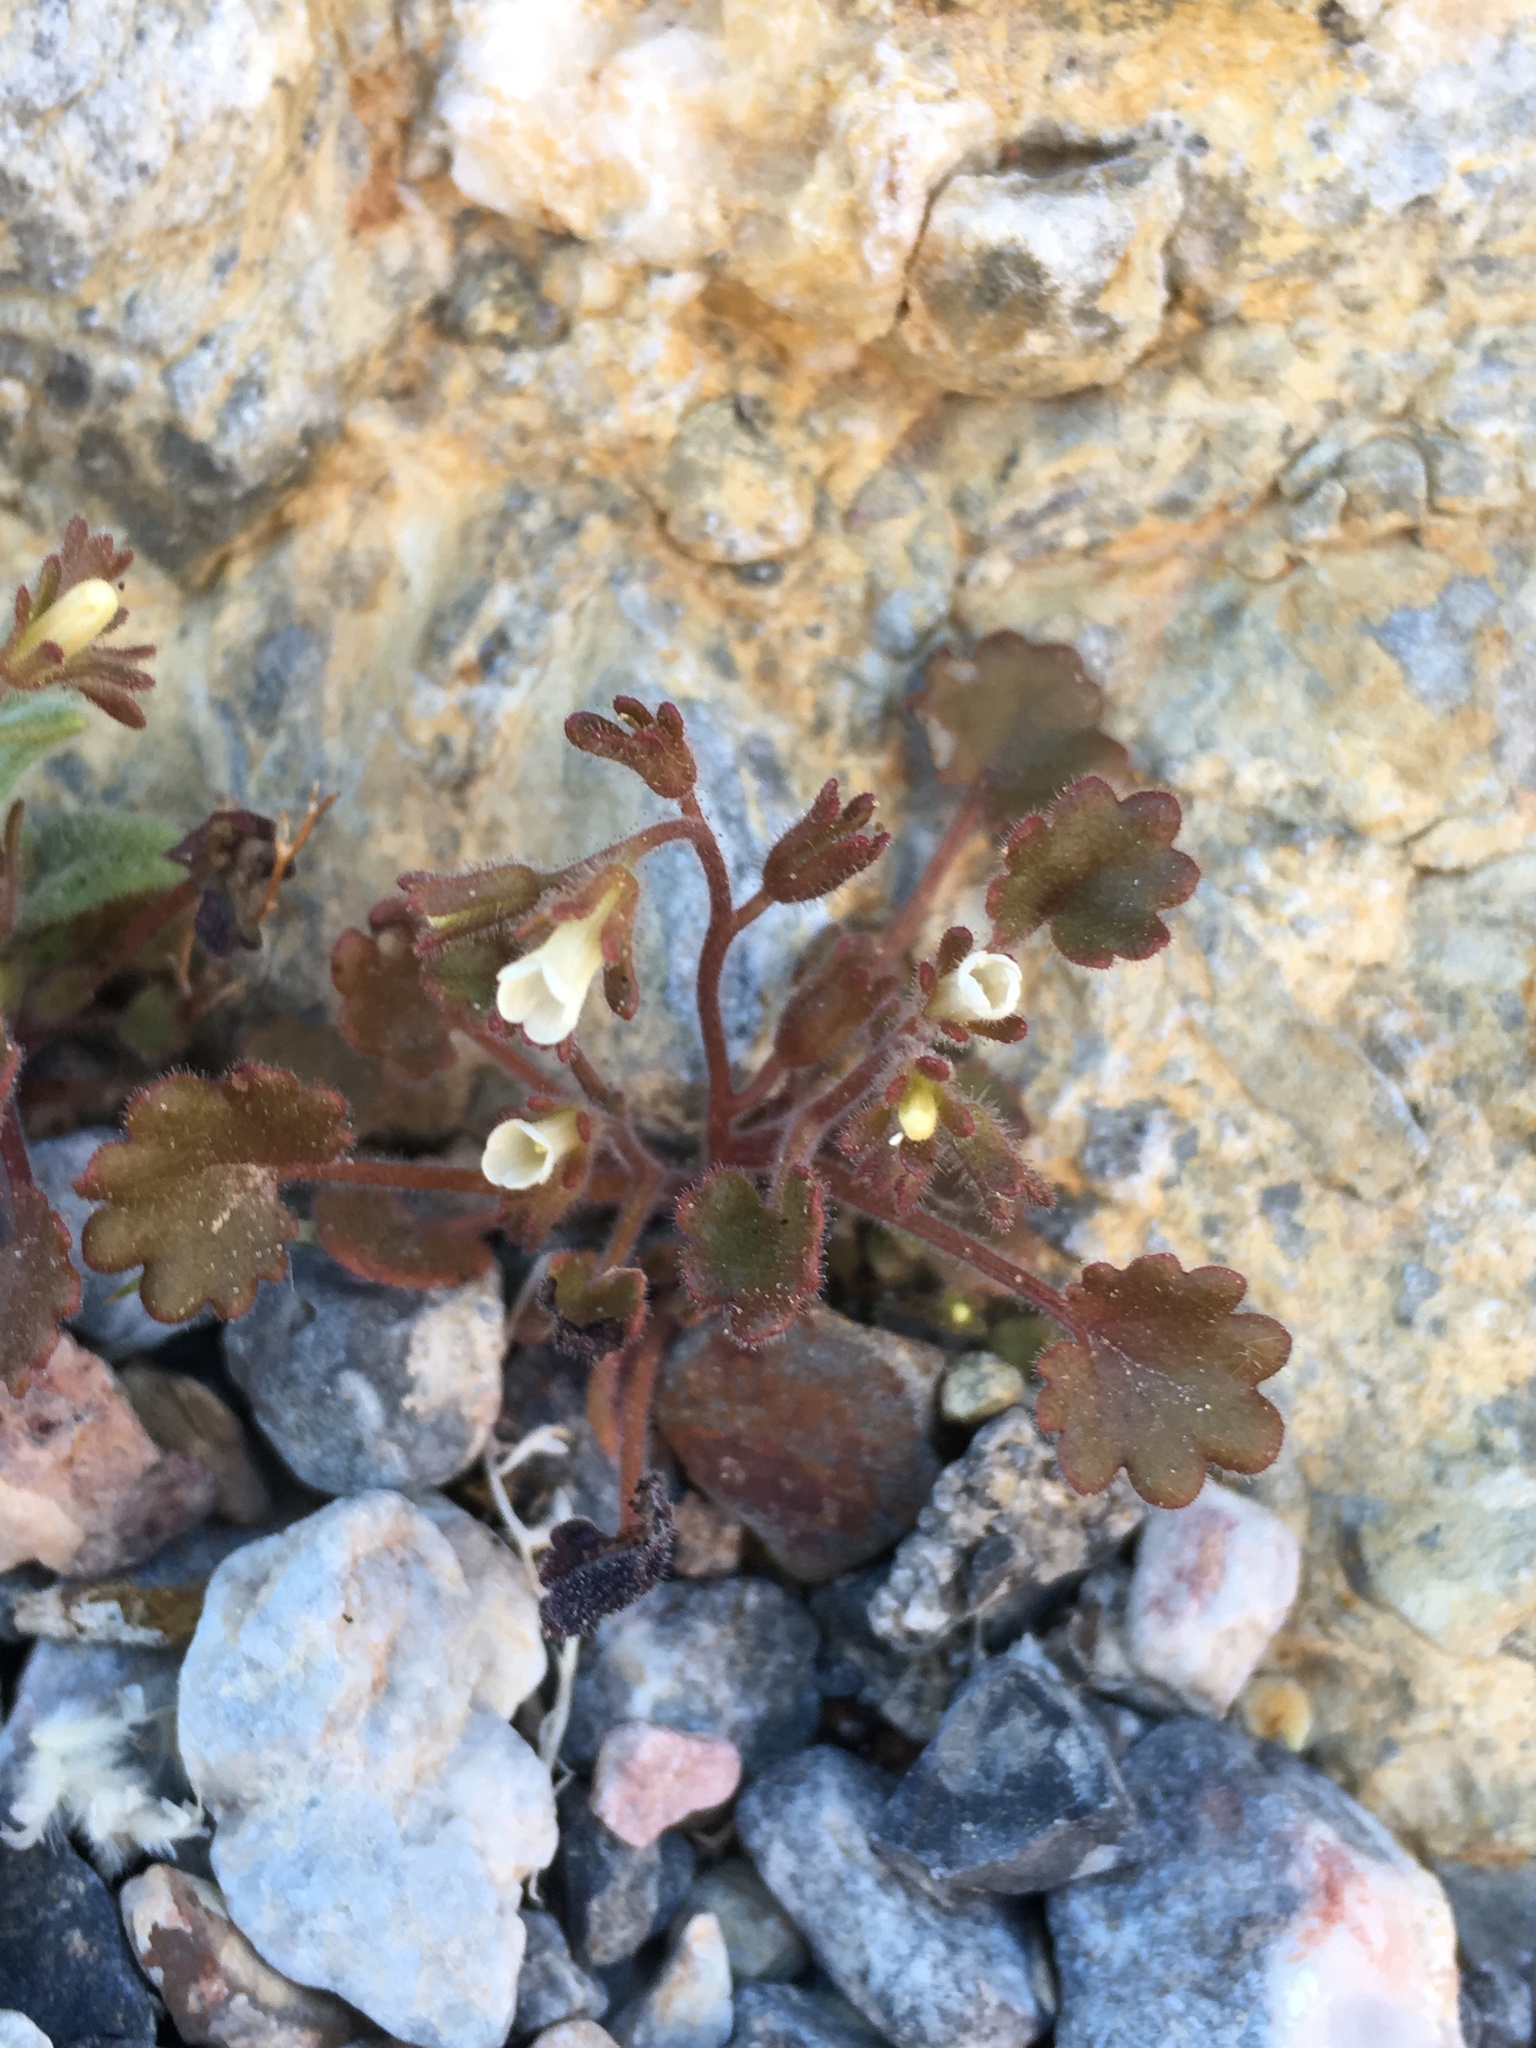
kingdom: Plantae
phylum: Tracheophyta
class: Magnoliopsida
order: Boraginales
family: Hydrophyllaceae
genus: Phacelia
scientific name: Phacelia rotundifolia
